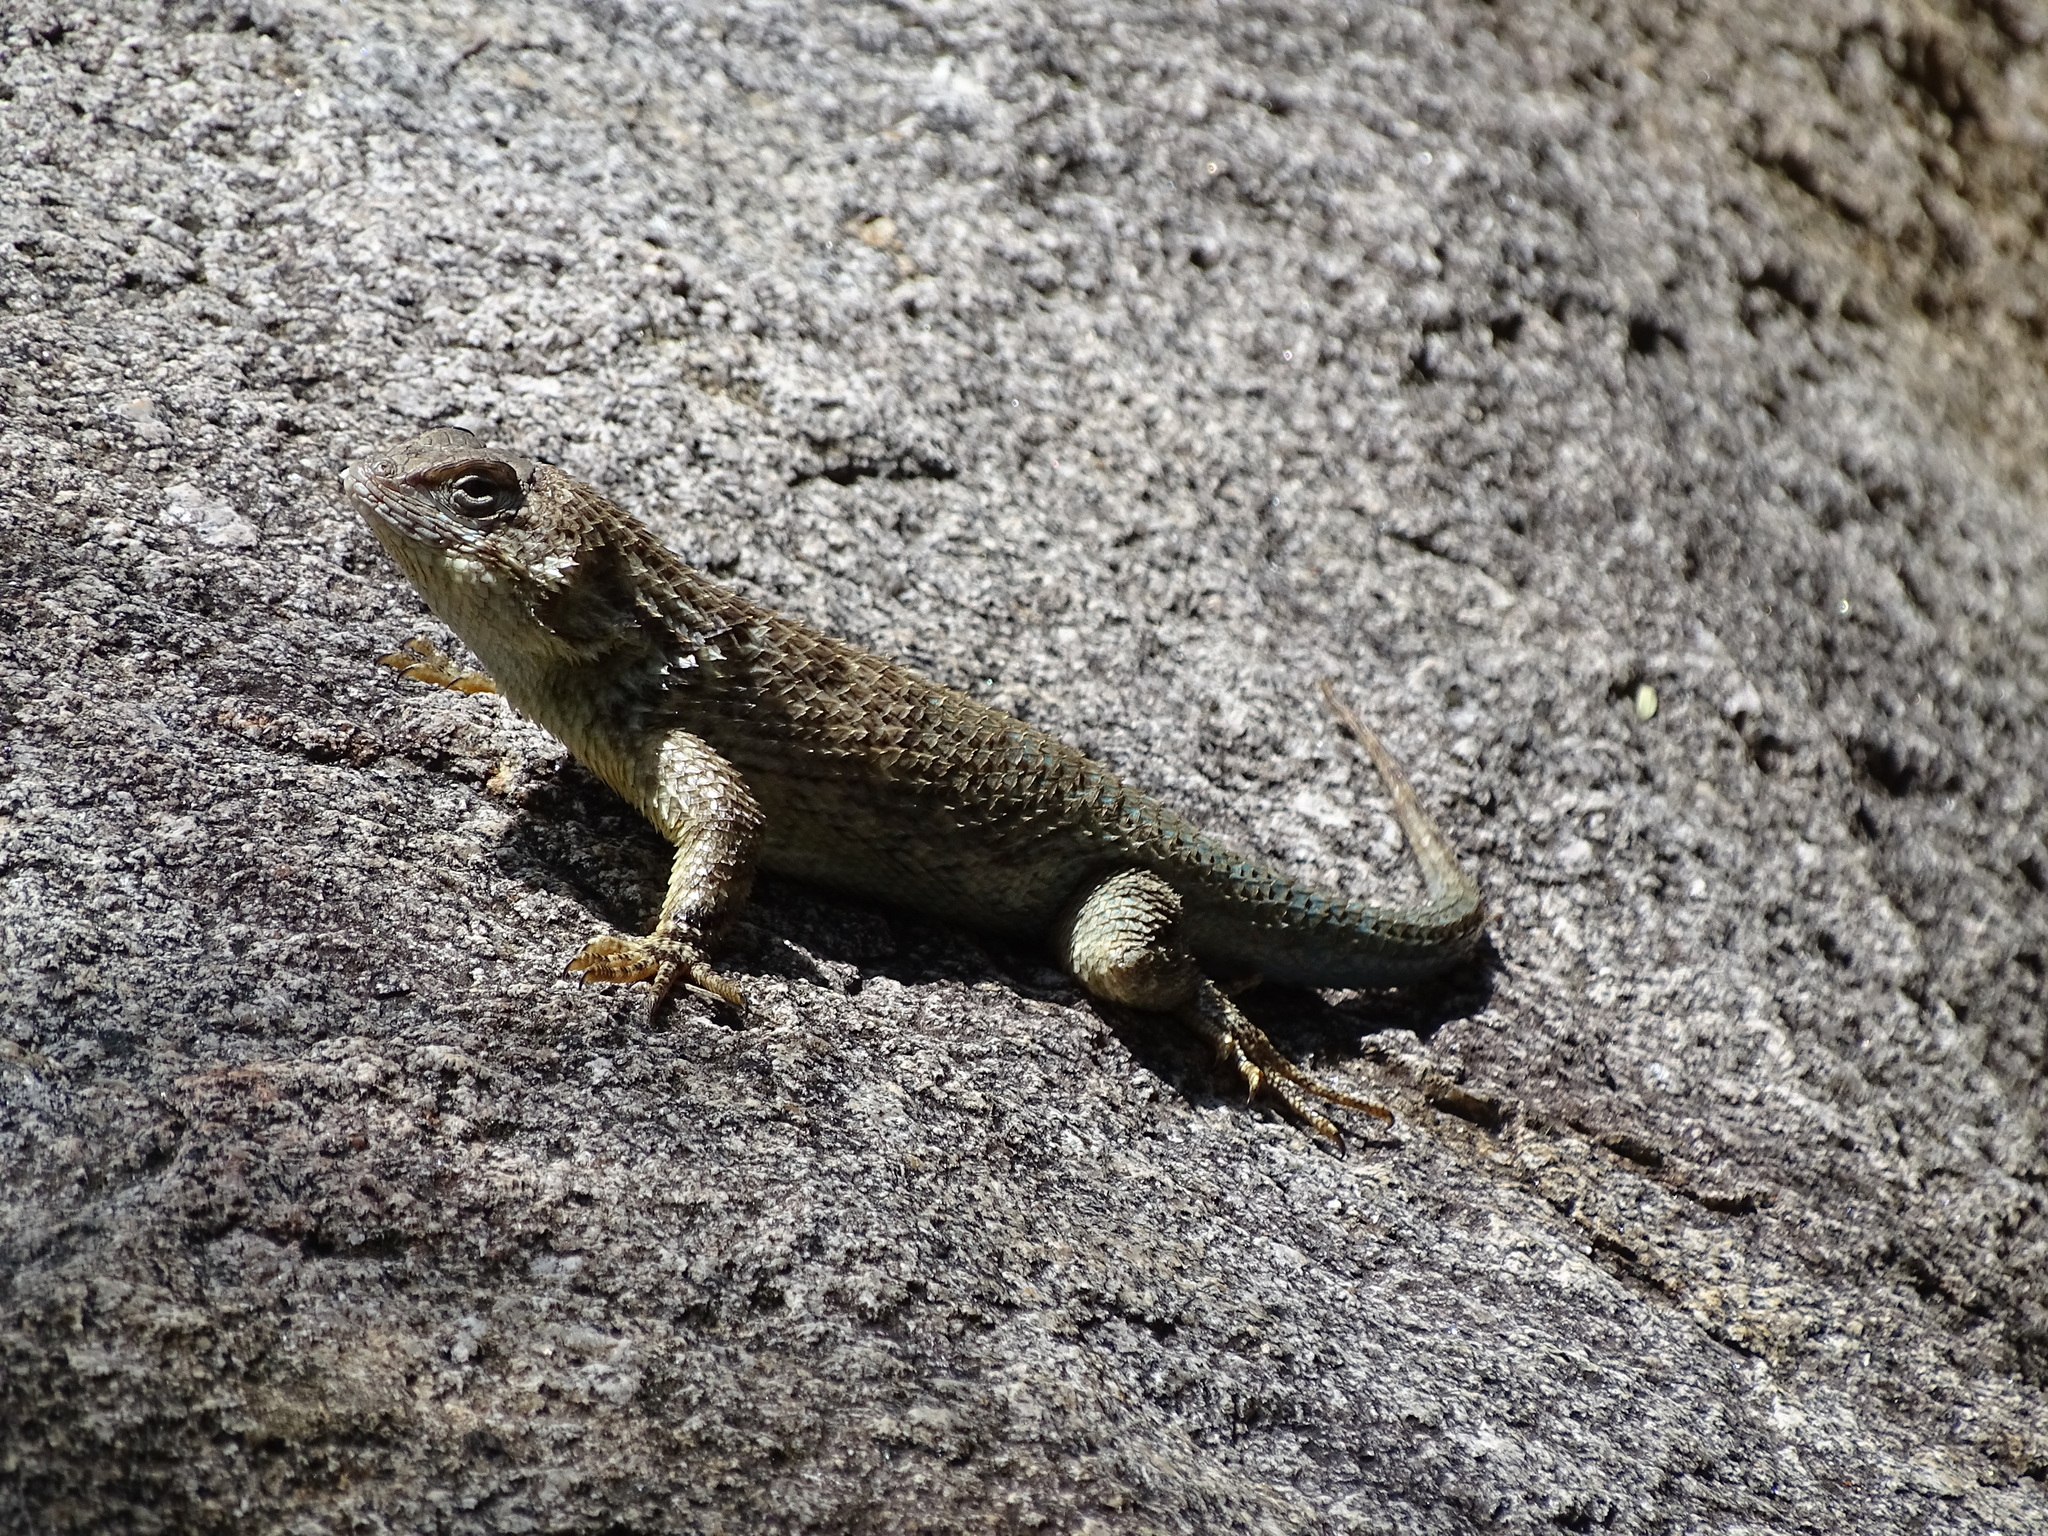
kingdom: Animalia
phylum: Chordata
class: Squamata
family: Phrynosomatidae
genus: Sceloporus
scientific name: Sceloporus clarkii
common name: Clark's spiny lizard
